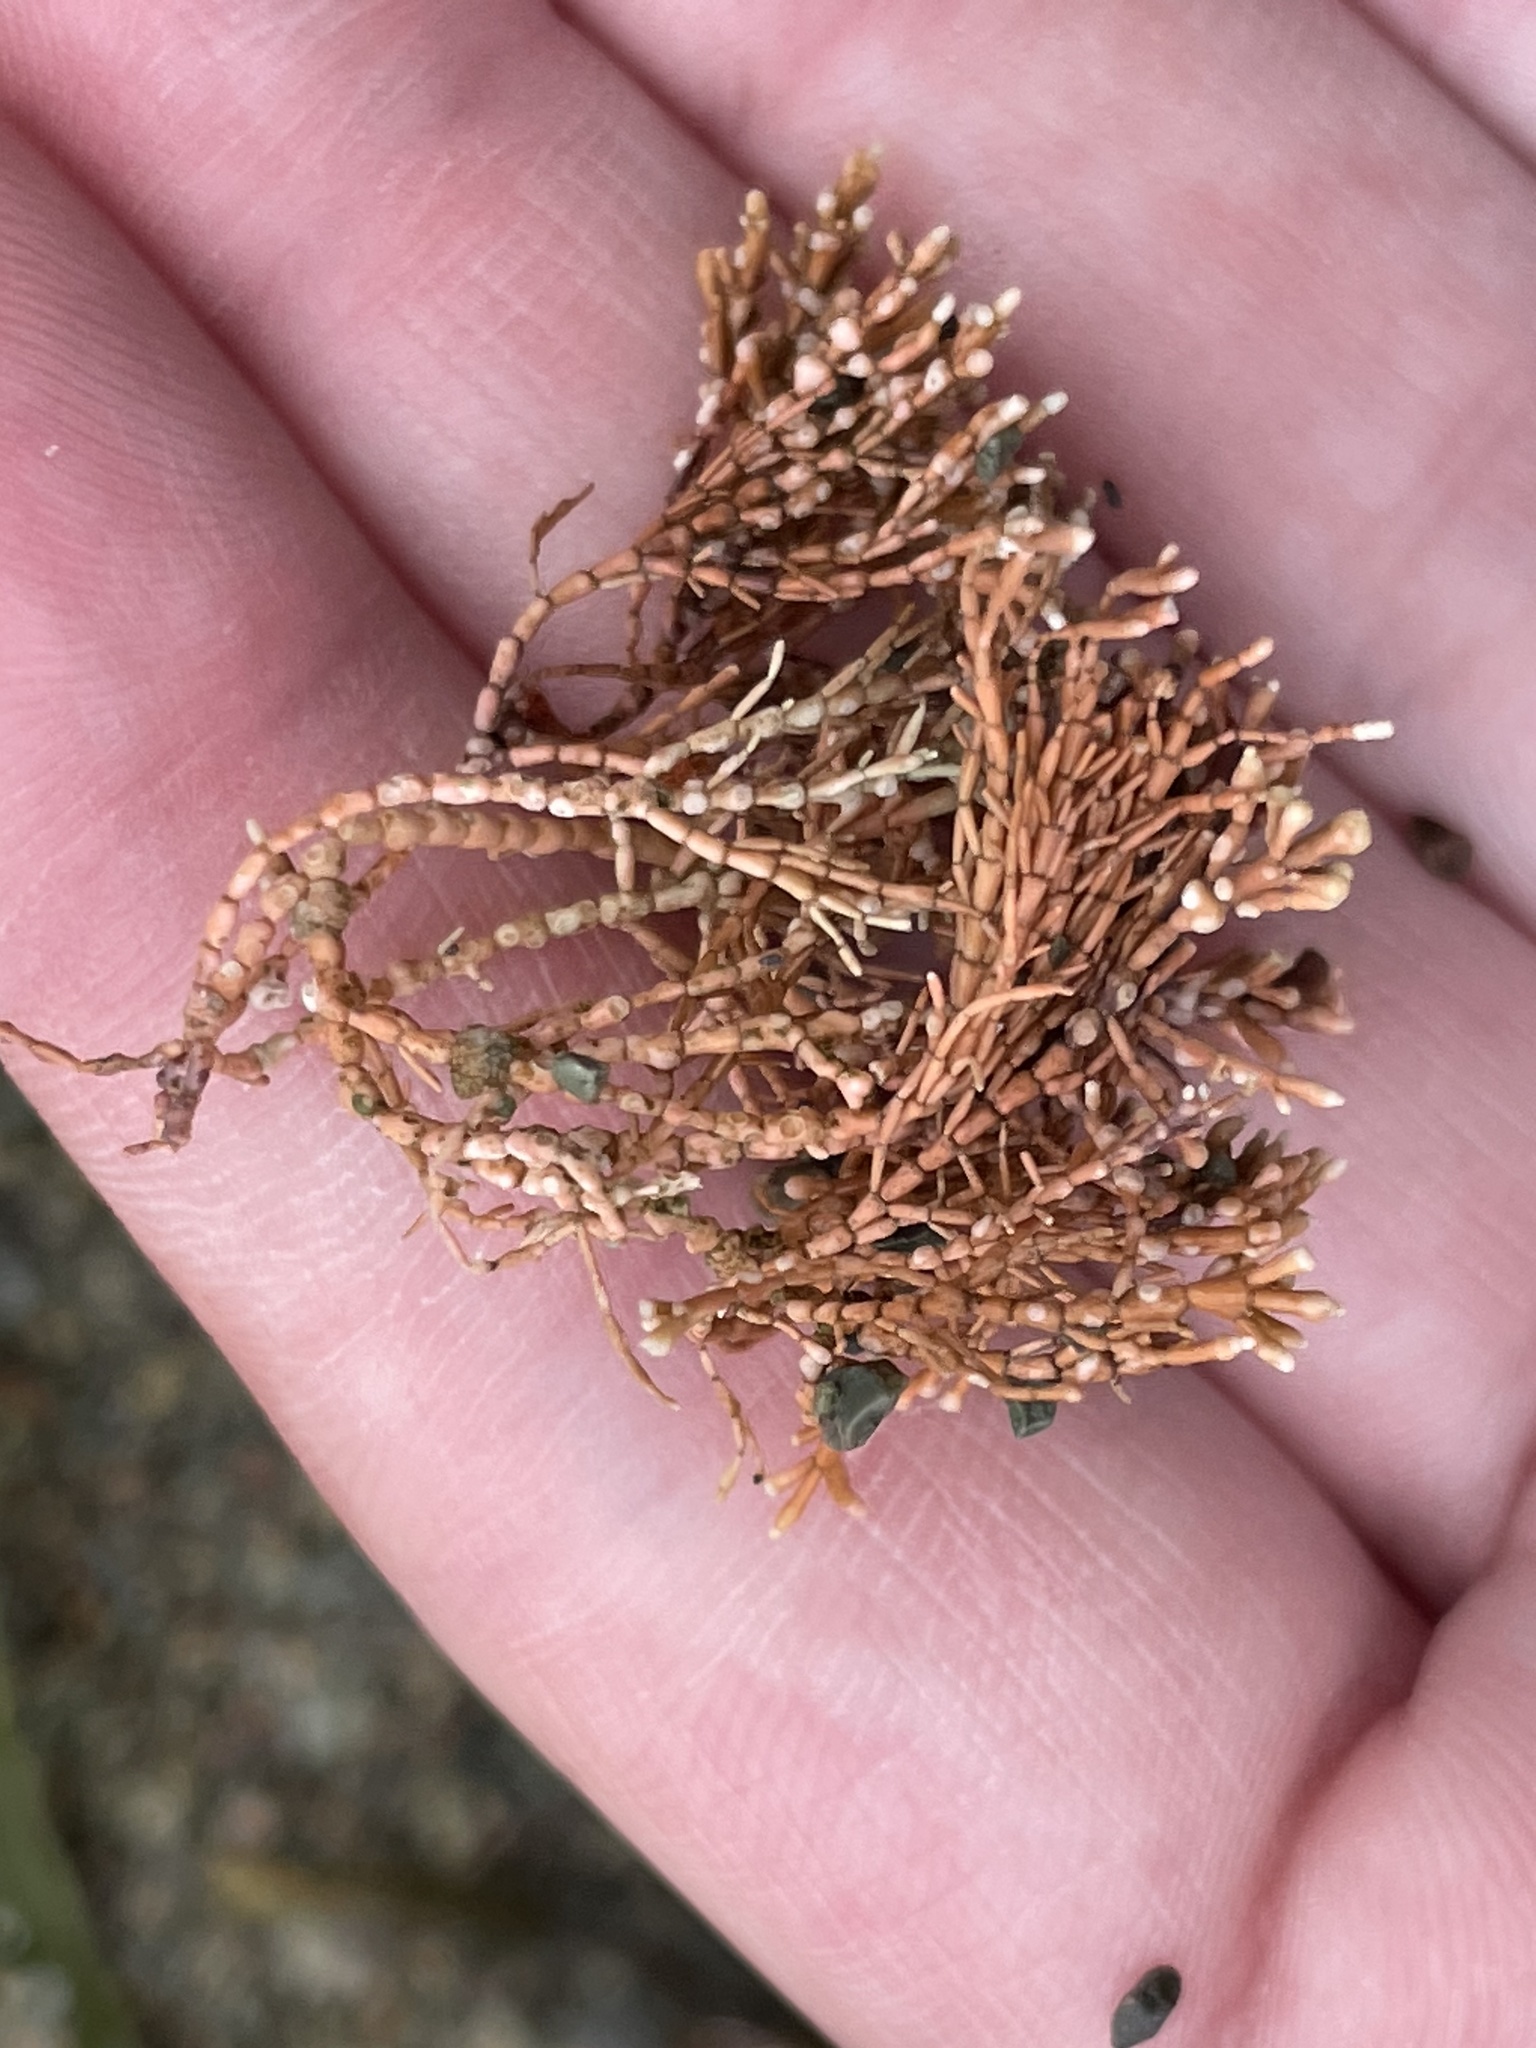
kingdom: Plantae
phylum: Rhodophyta
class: Florideophyceae
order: Corallinales
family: Corallinaceae
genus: Corallina
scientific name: Corallina officinalis
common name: Coral weed
